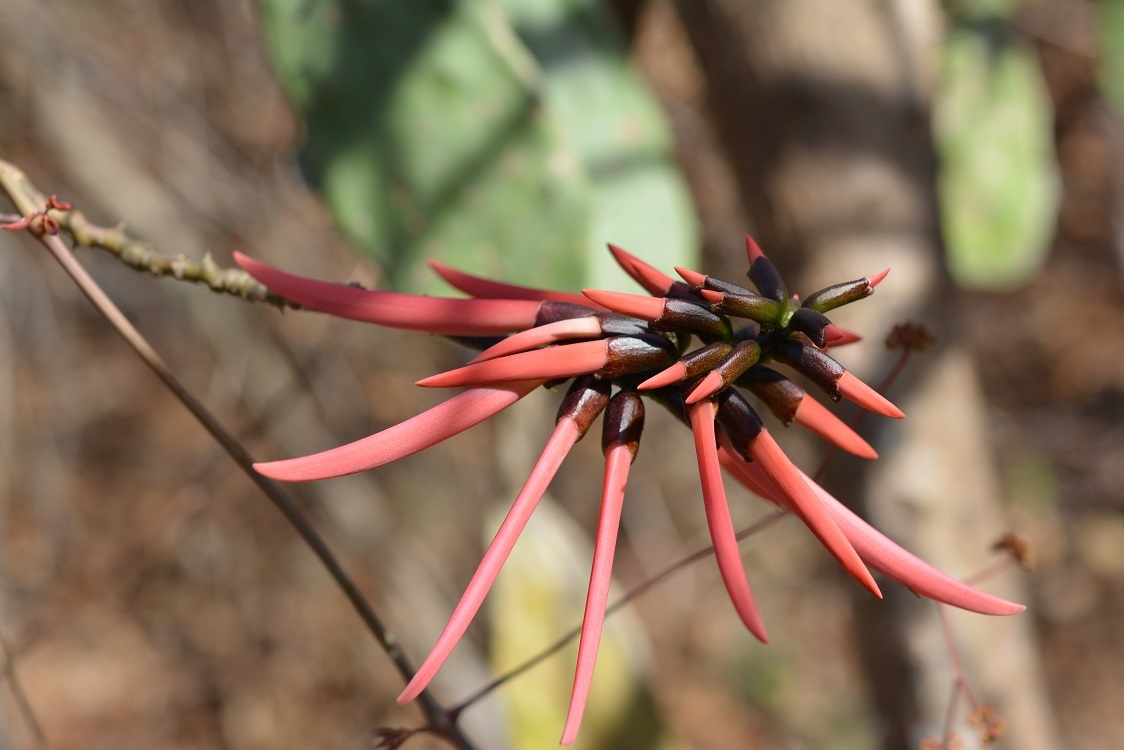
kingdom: Plantae
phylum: Tracheophyta
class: Magnoliopsida
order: Fabales
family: Fabaceae
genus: Erythrina
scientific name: Erythrina goldmanii
